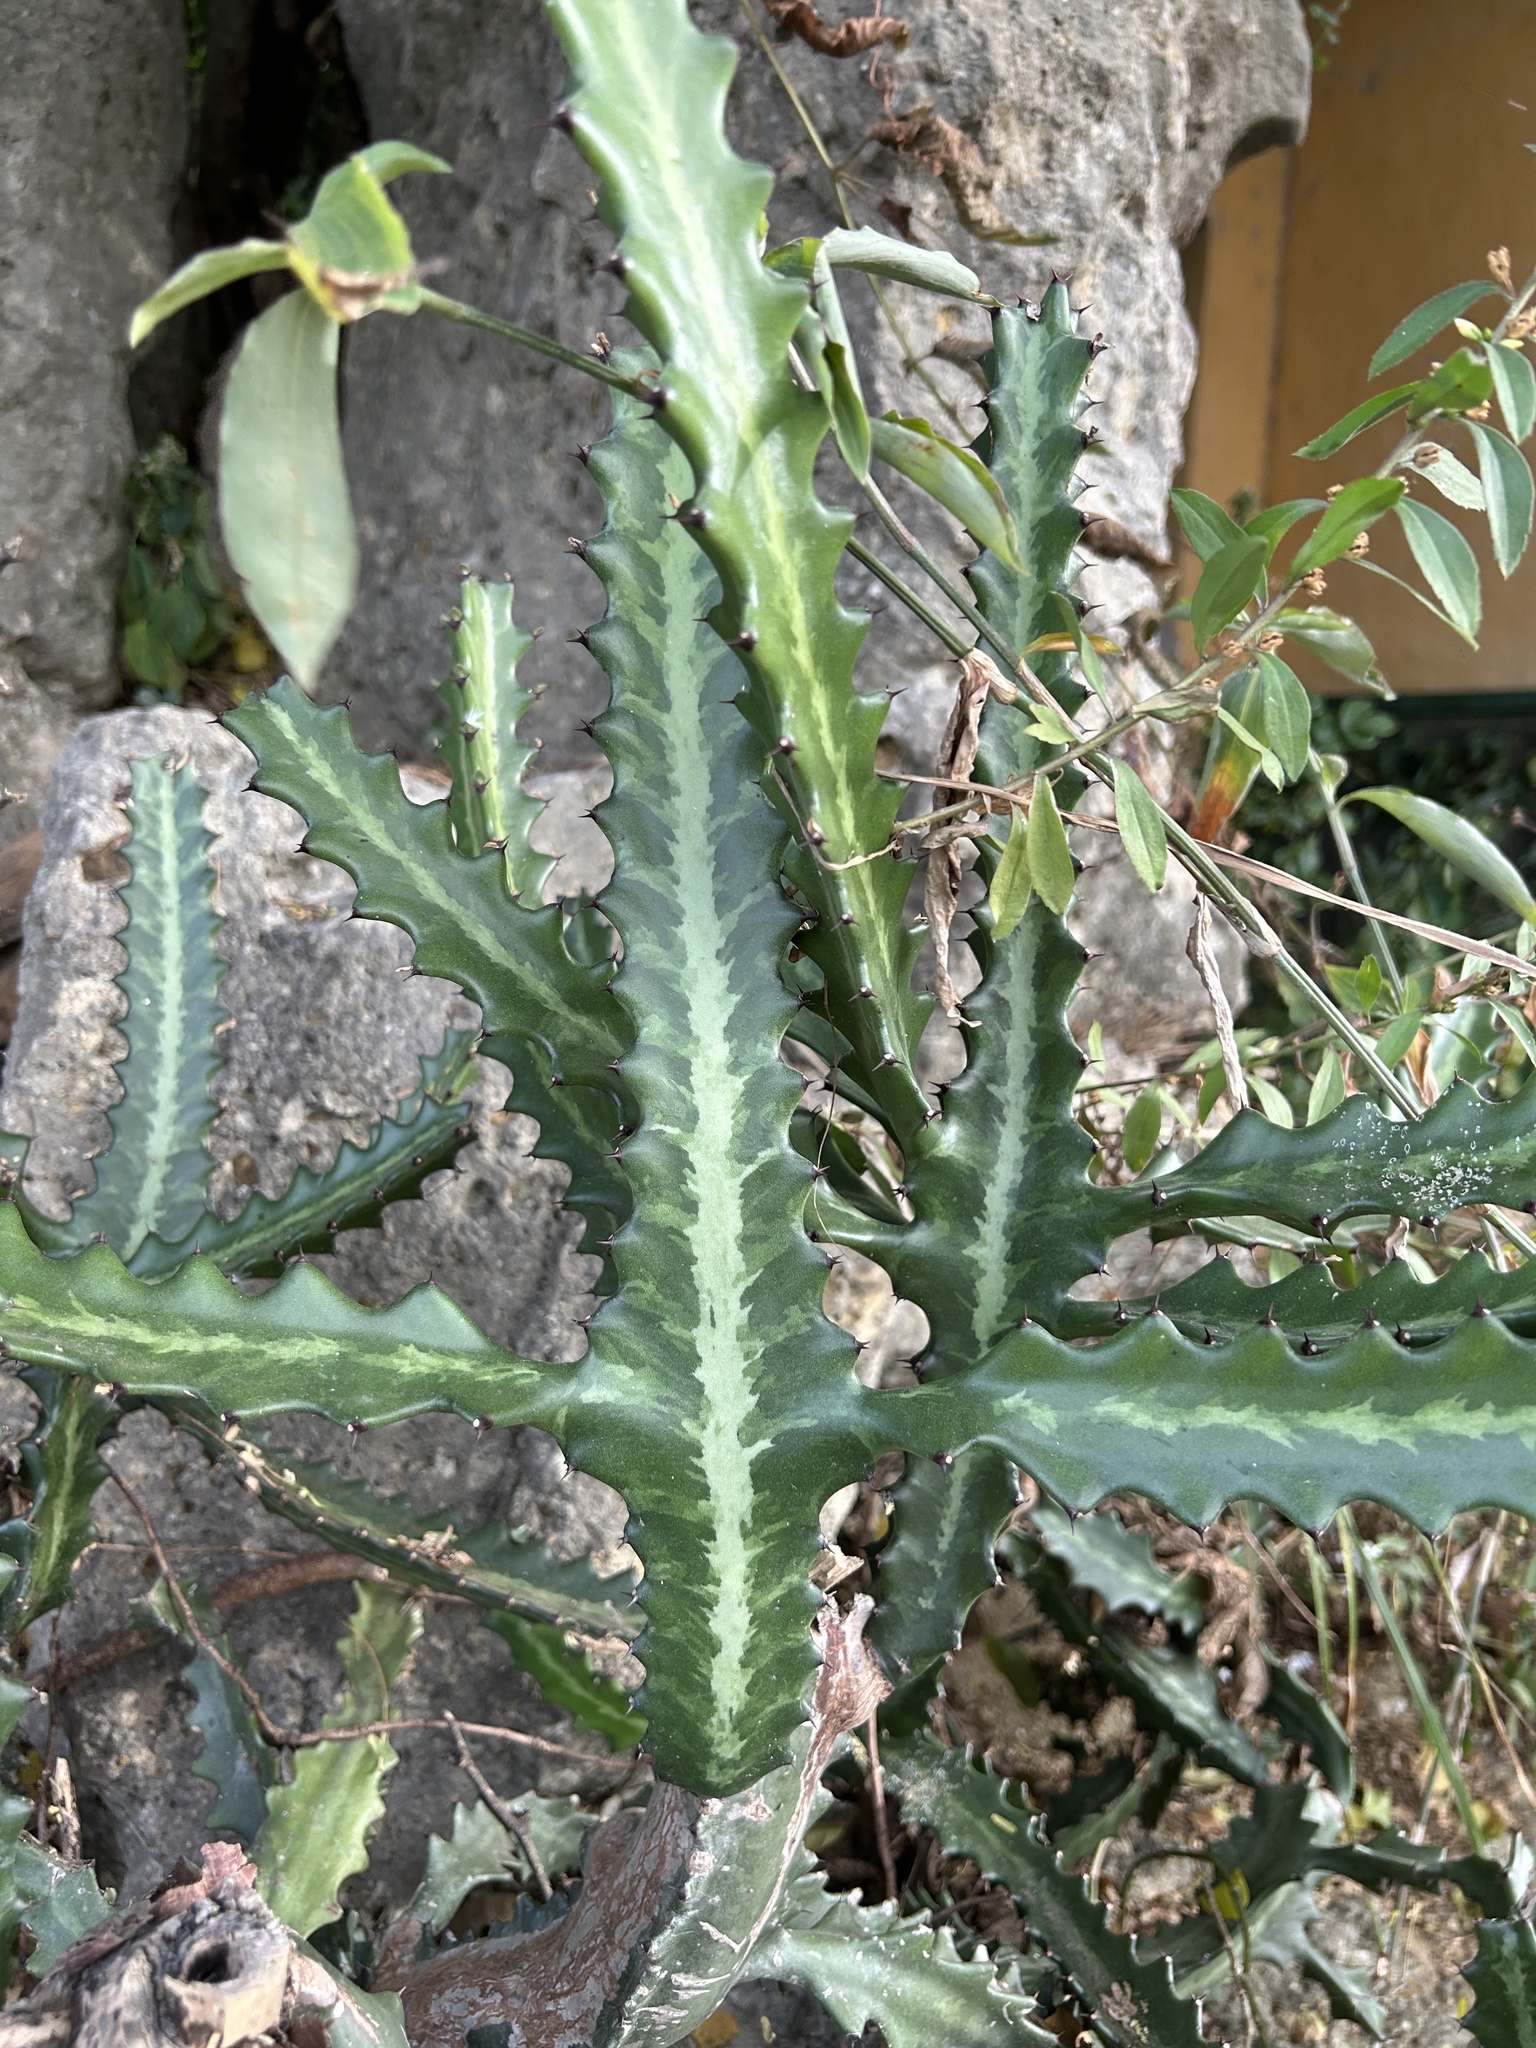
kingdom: Plantae
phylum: Tracheophyta
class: Magnoliopsida
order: Malpighiales
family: Euphorbiaceae
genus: Euphorbia
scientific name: Euphorbia lactea
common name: Mottled spurge
